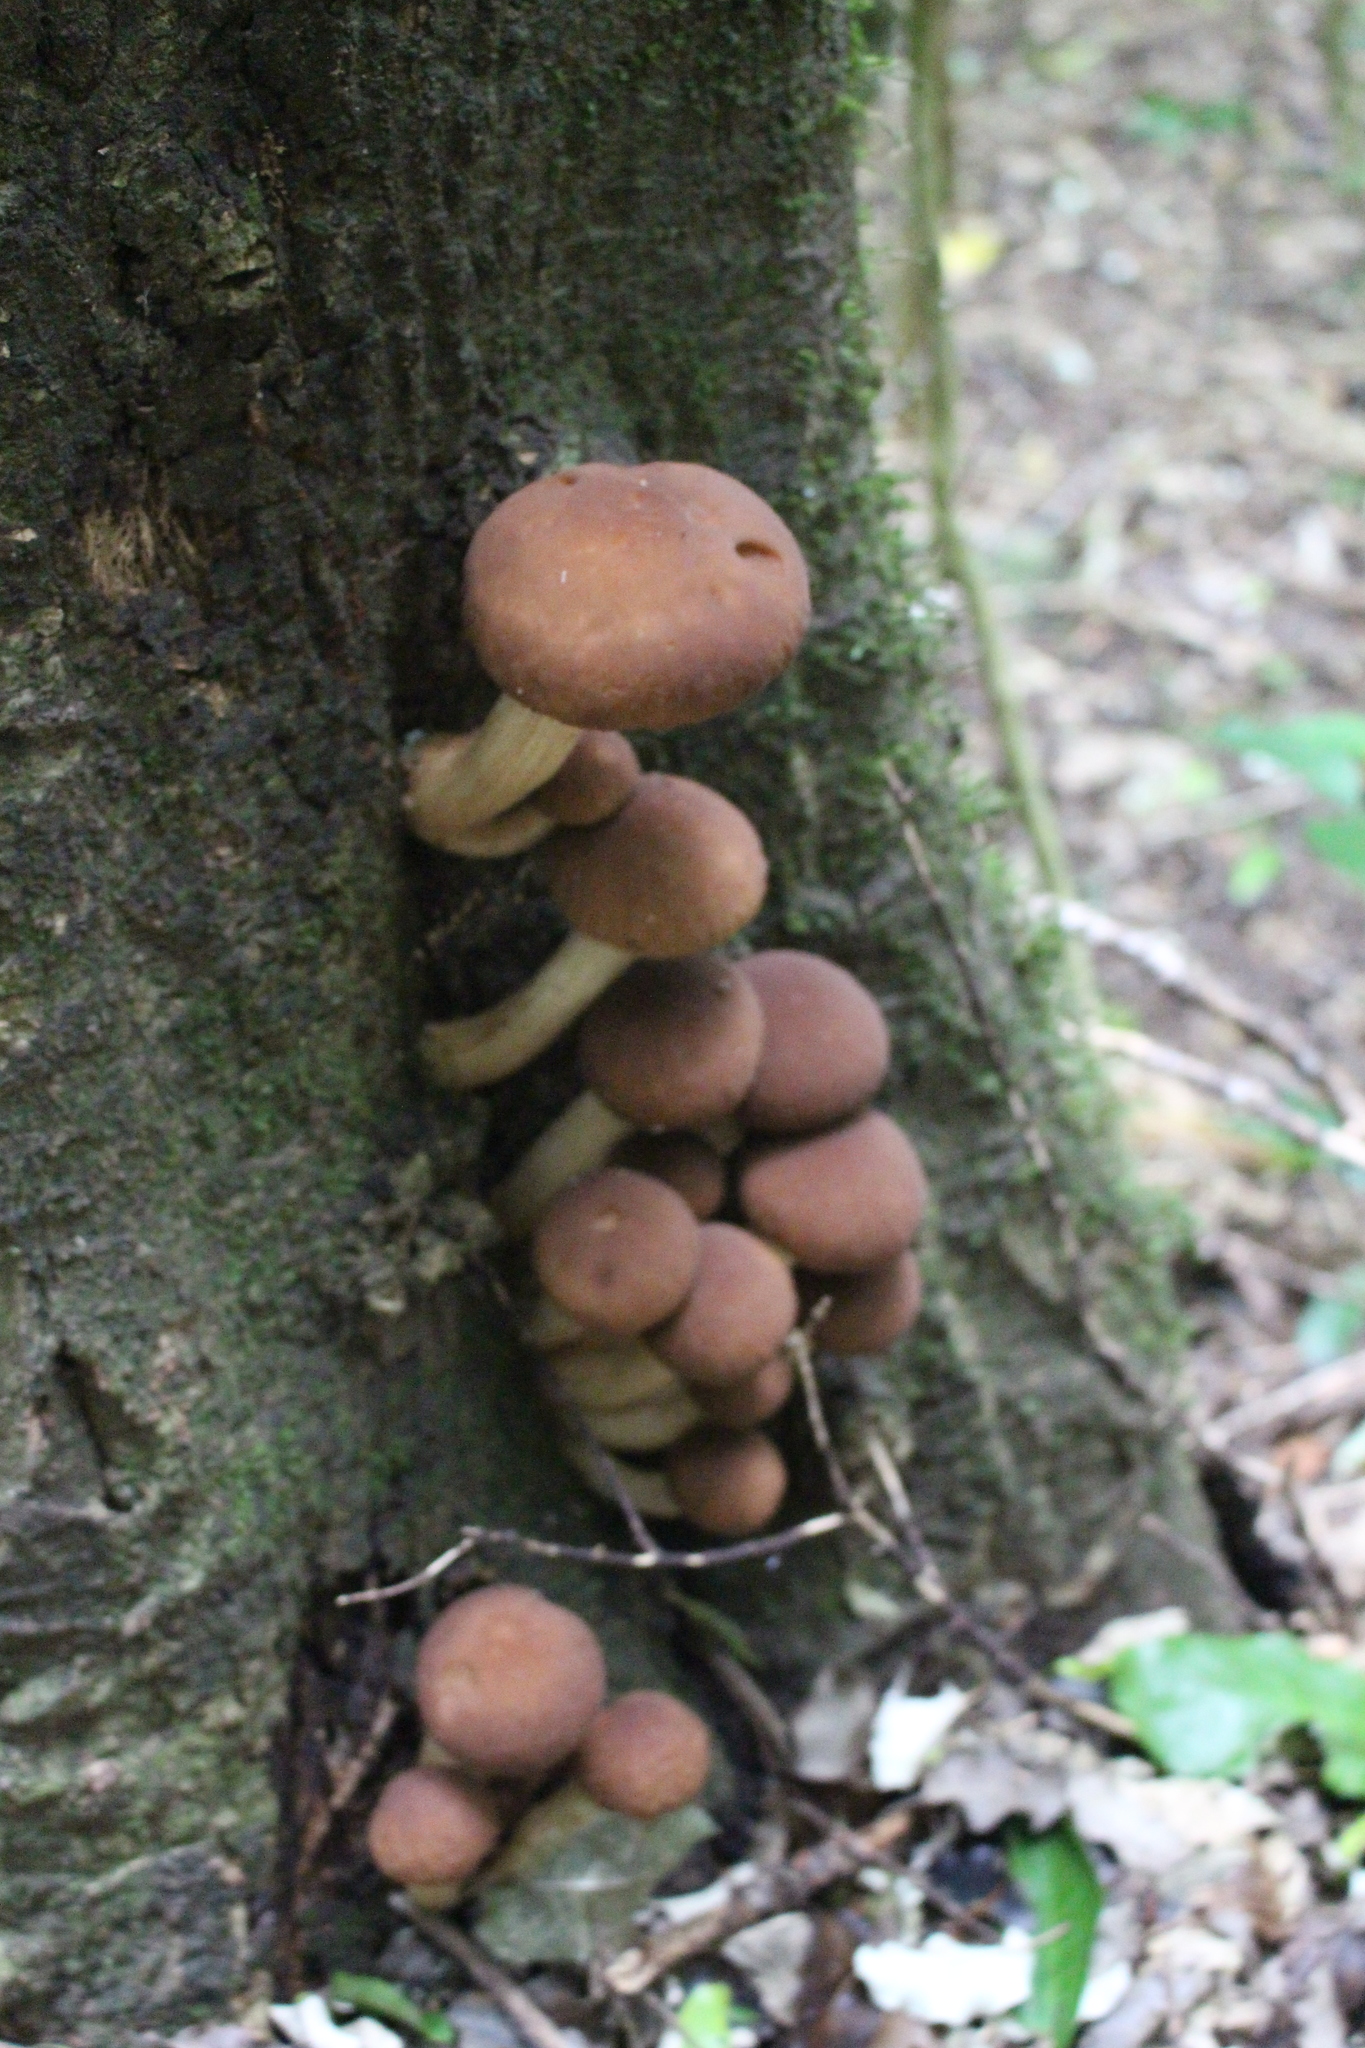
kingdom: Fungi
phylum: Basidiomycota
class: Agaricomycetes
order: Agaricales
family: Tubariaceae
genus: Cyclocybe
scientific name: Cyclocybe parasitica
